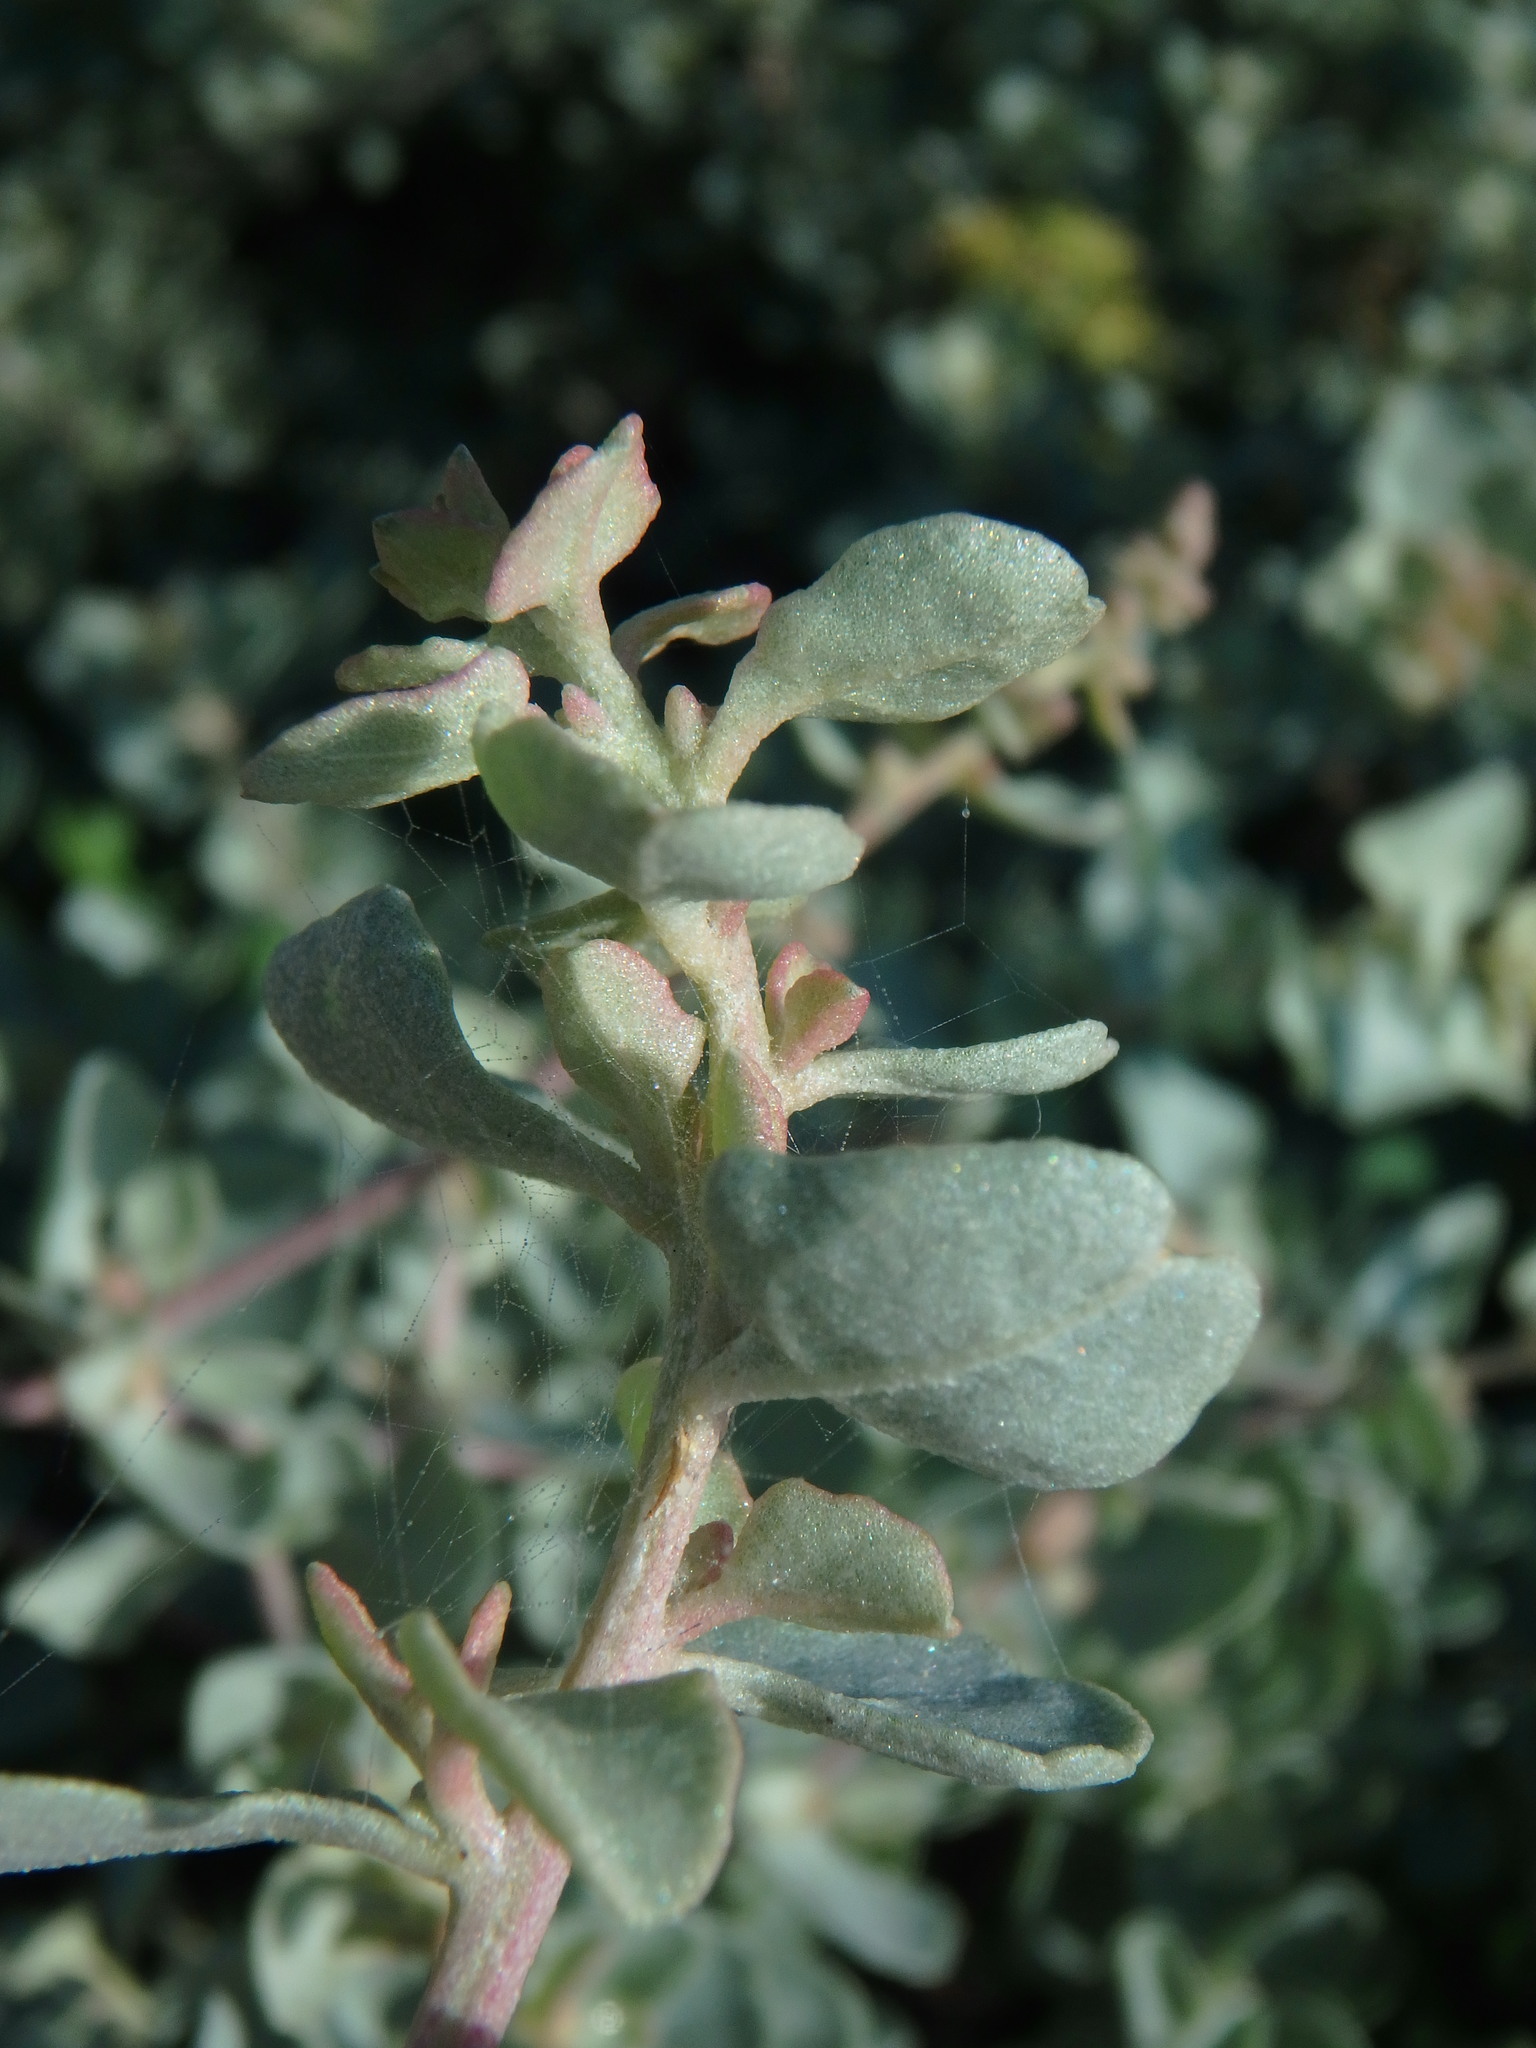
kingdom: Plantae
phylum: Tracheophyta
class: Magnoliopsida
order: Caryophyllales
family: Amaranthaceae
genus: Atriplex
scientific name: Atriplex halimus
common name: Shrubby orache
